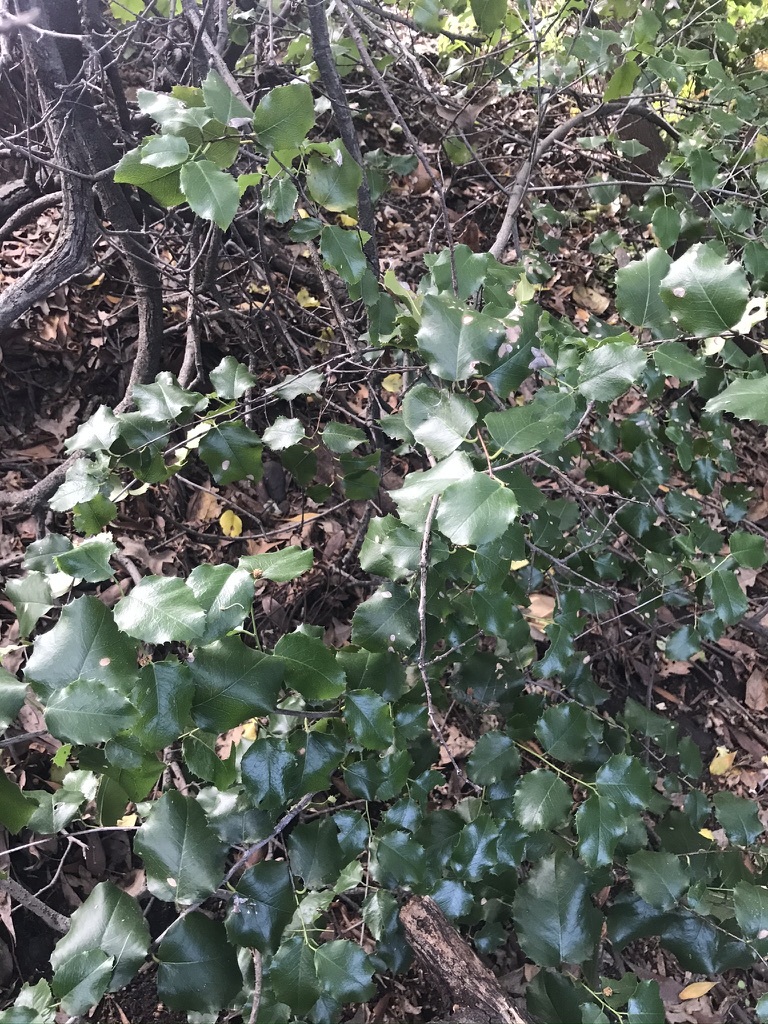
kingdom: Plantae
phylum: Tracheophyta
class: Magnoliopsida
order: Rosales
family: Rosaceae
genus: Prunus
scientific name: Prunus ilicifolia
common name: Hollyleaf cherry
